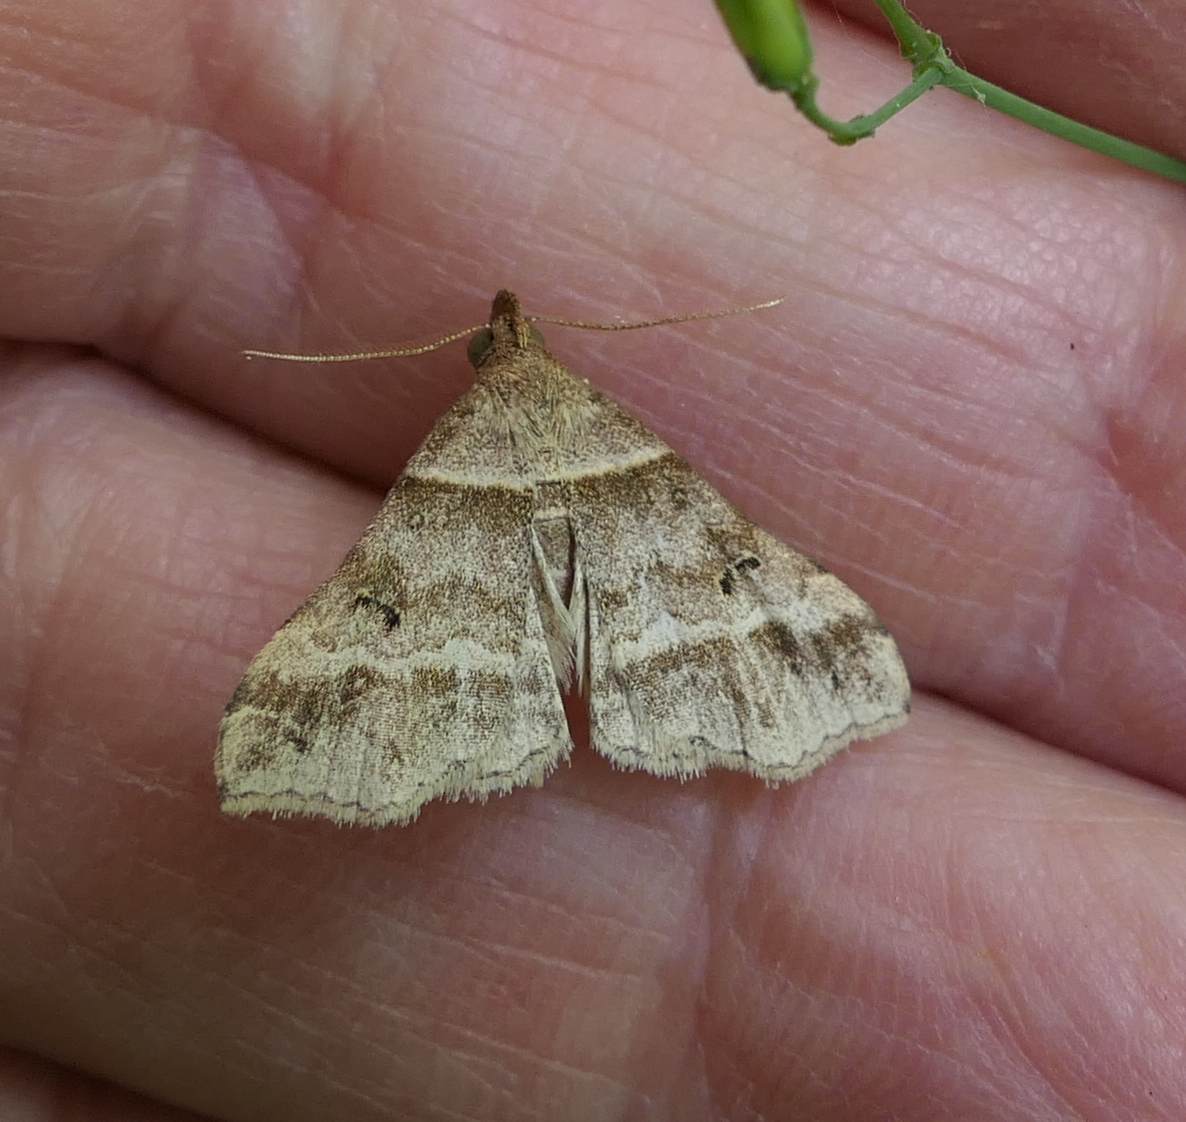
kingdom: Animalia
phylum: Arthropoda
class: Insecta
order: Lepidoptera
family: Erebidae
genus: Phaeolita
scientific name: Phaeolita pyramusalis
